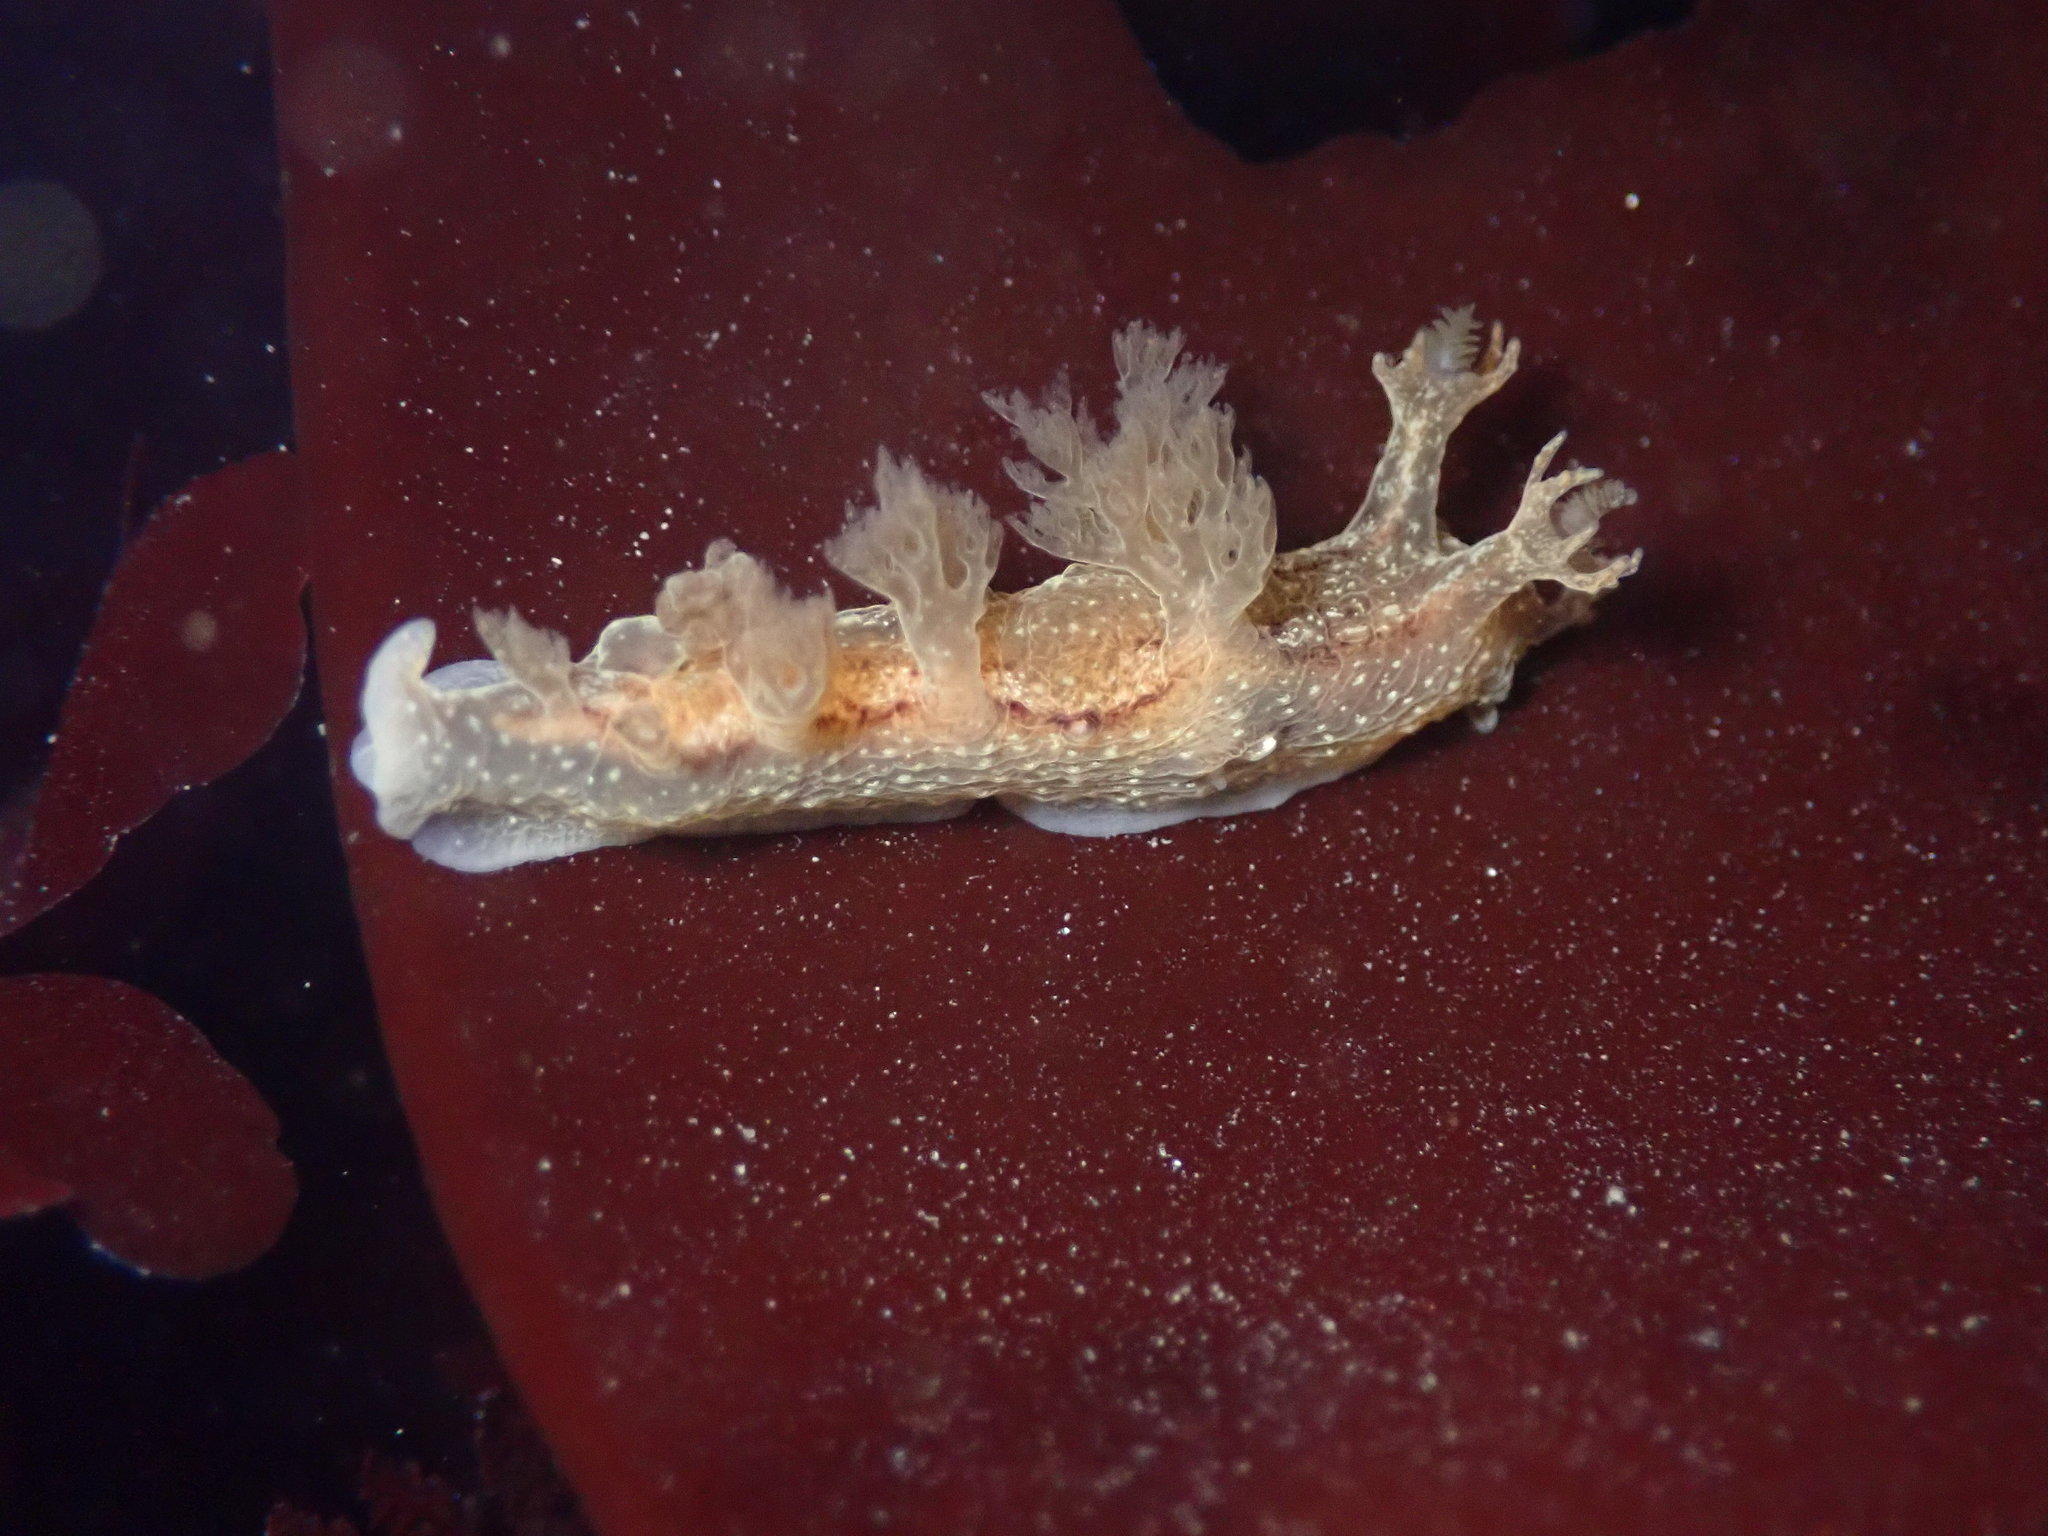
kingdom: Animalia
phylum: Mollusca
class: Gastropoda
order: Nudibranchia
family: Dendronotidae
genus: Dendronotus
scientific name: Dendronotus subramosus
